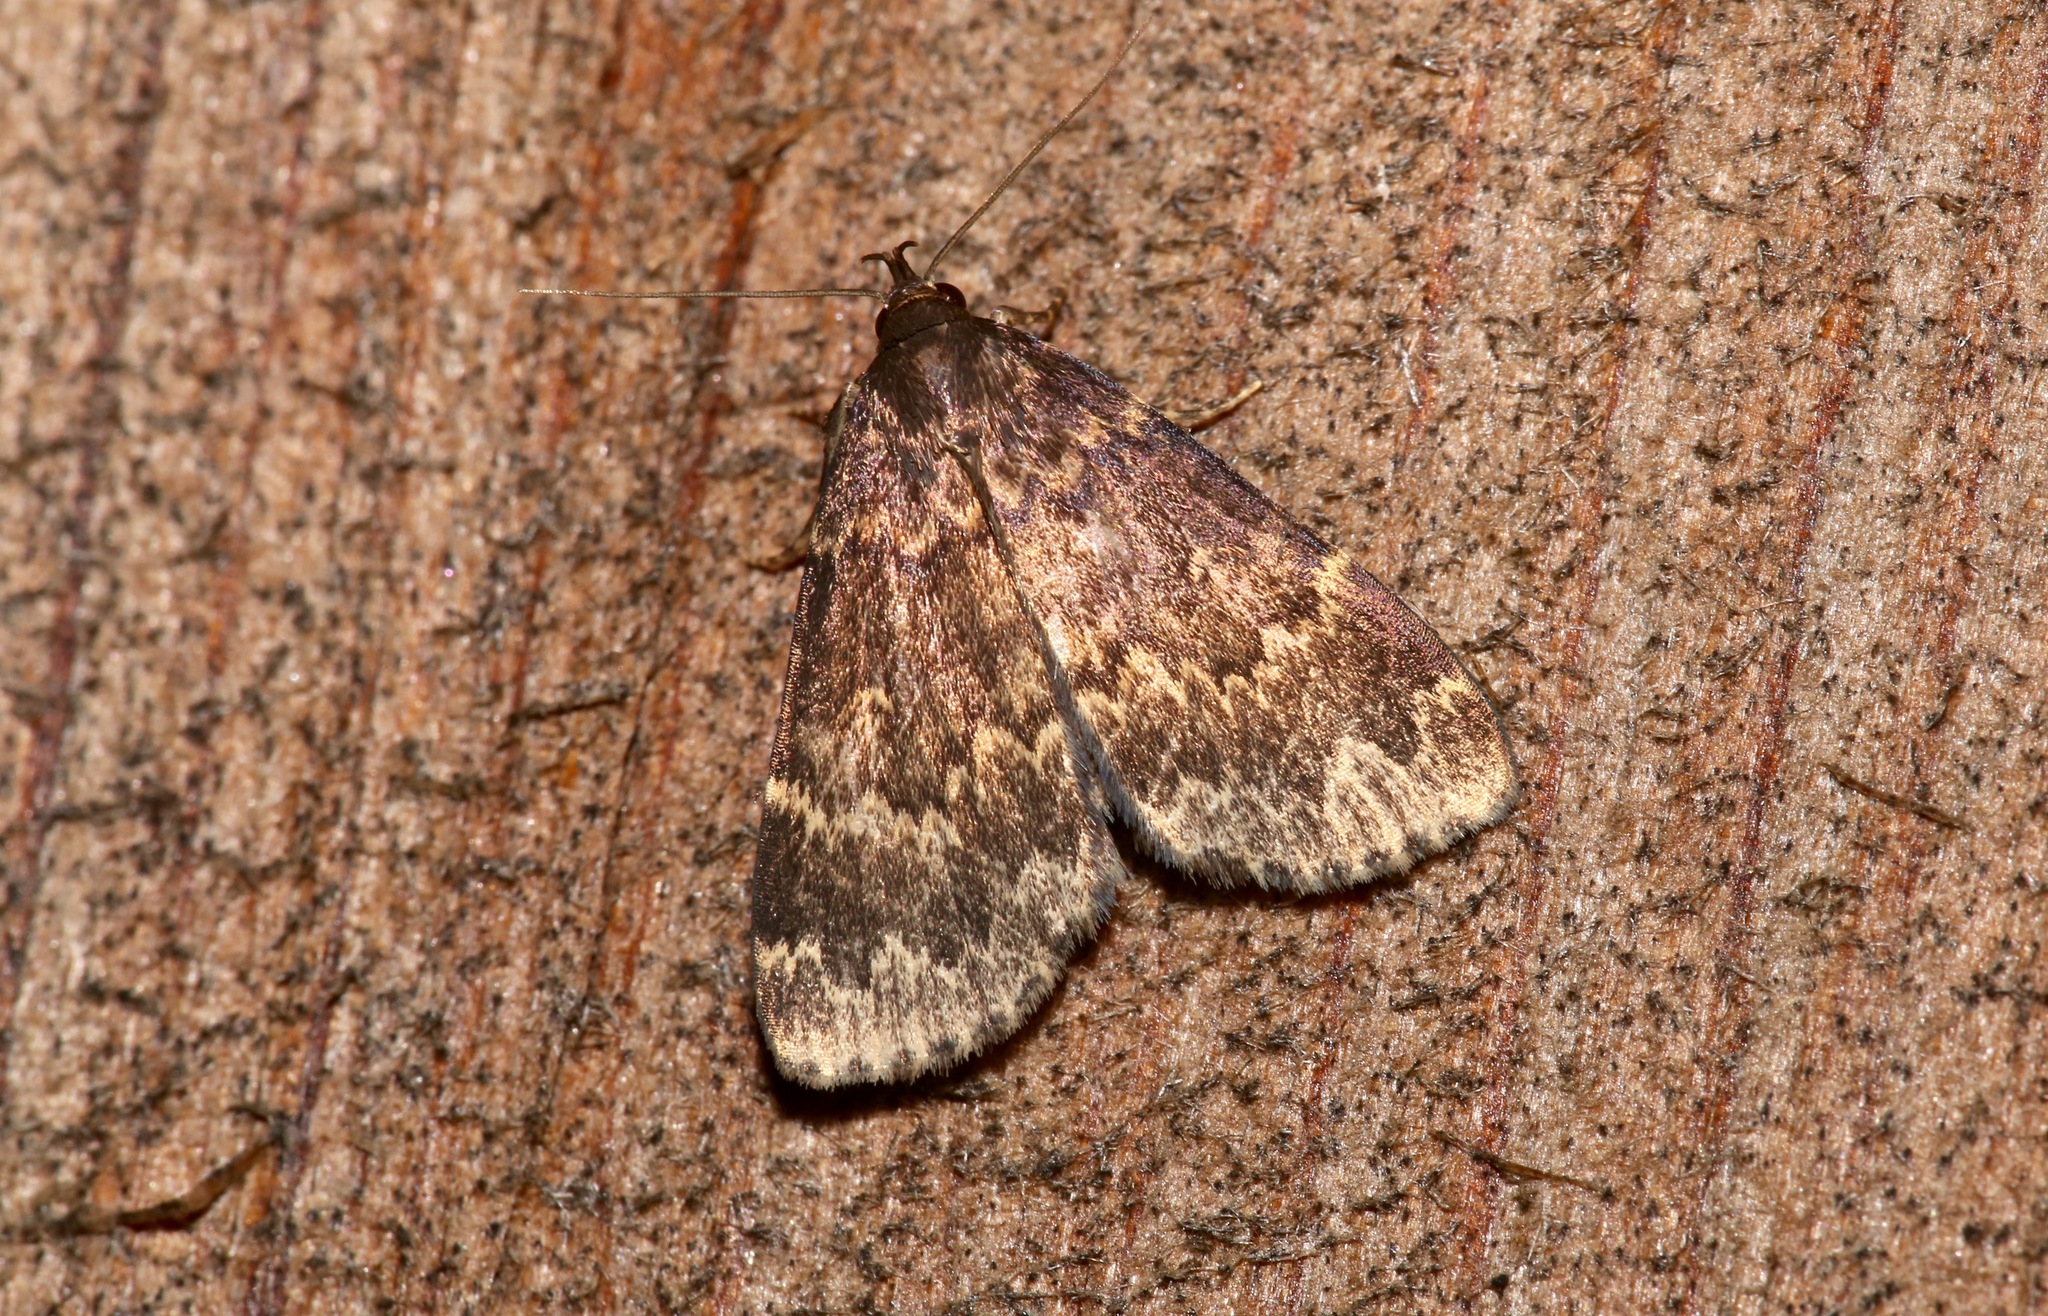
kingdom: Animalia
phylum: Arthropoda
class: Insecta
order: Lepidoptera
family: Erebidae
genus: Idia
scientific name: Idia lubricalis
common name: Twin-striped tabby
